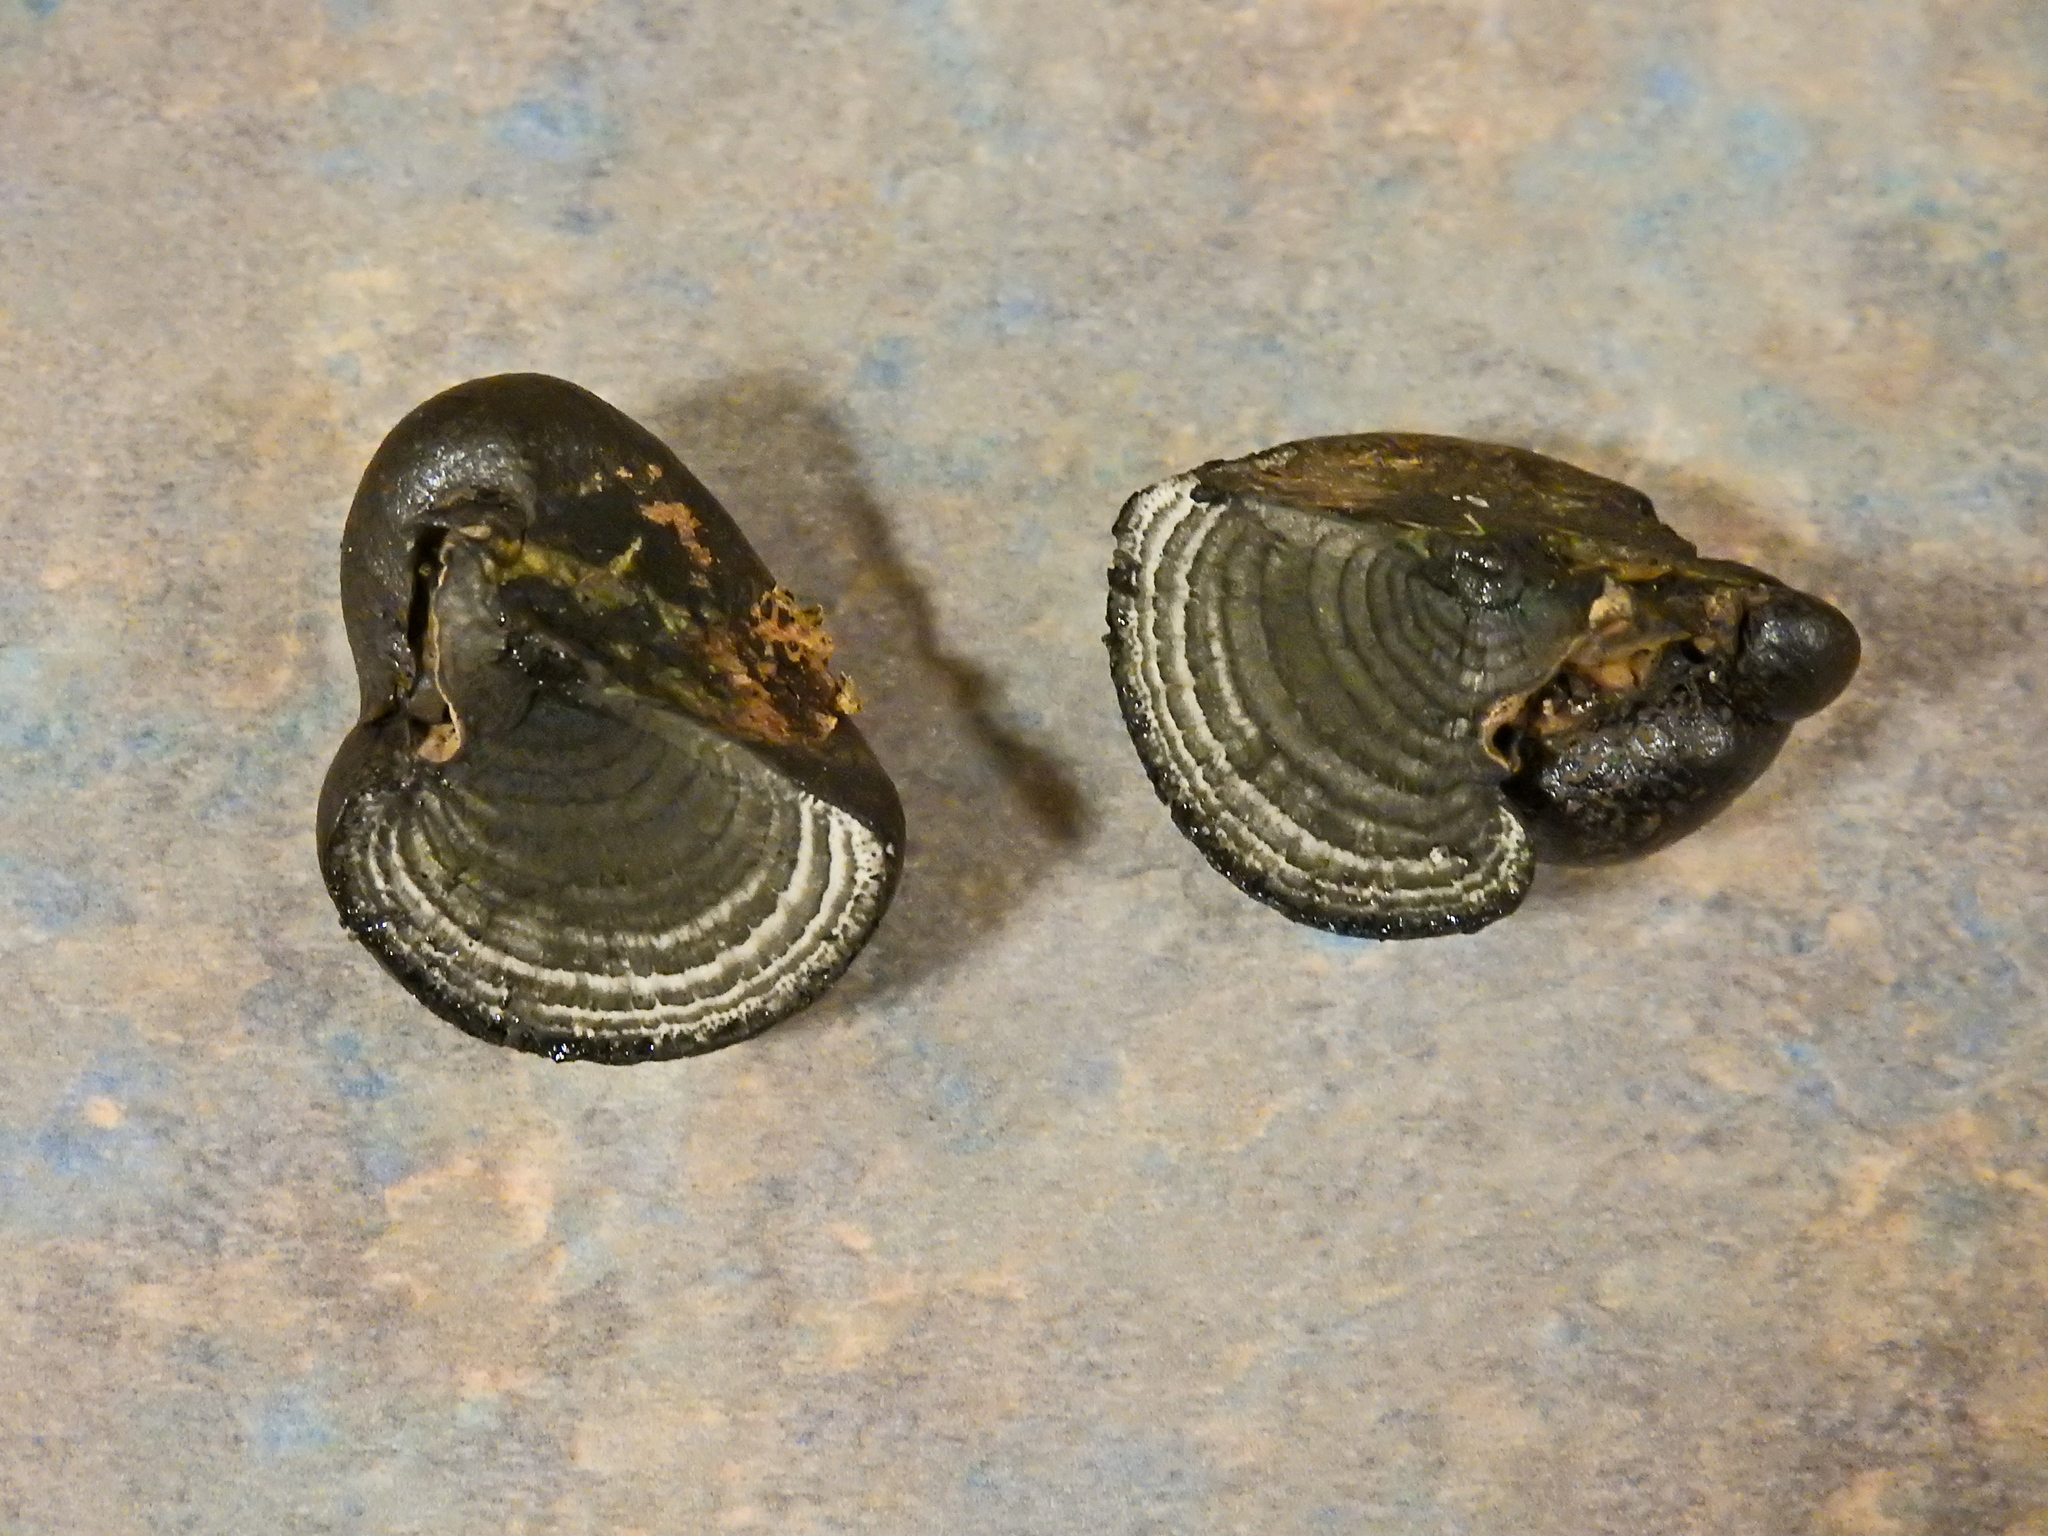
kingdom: Fungi
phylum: Ascomycota
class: Sordariomycetes
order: Xylariales
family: Hypoxylaceae
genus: Daldinia
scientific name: Daldinia concentrica
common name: Cramp balls
